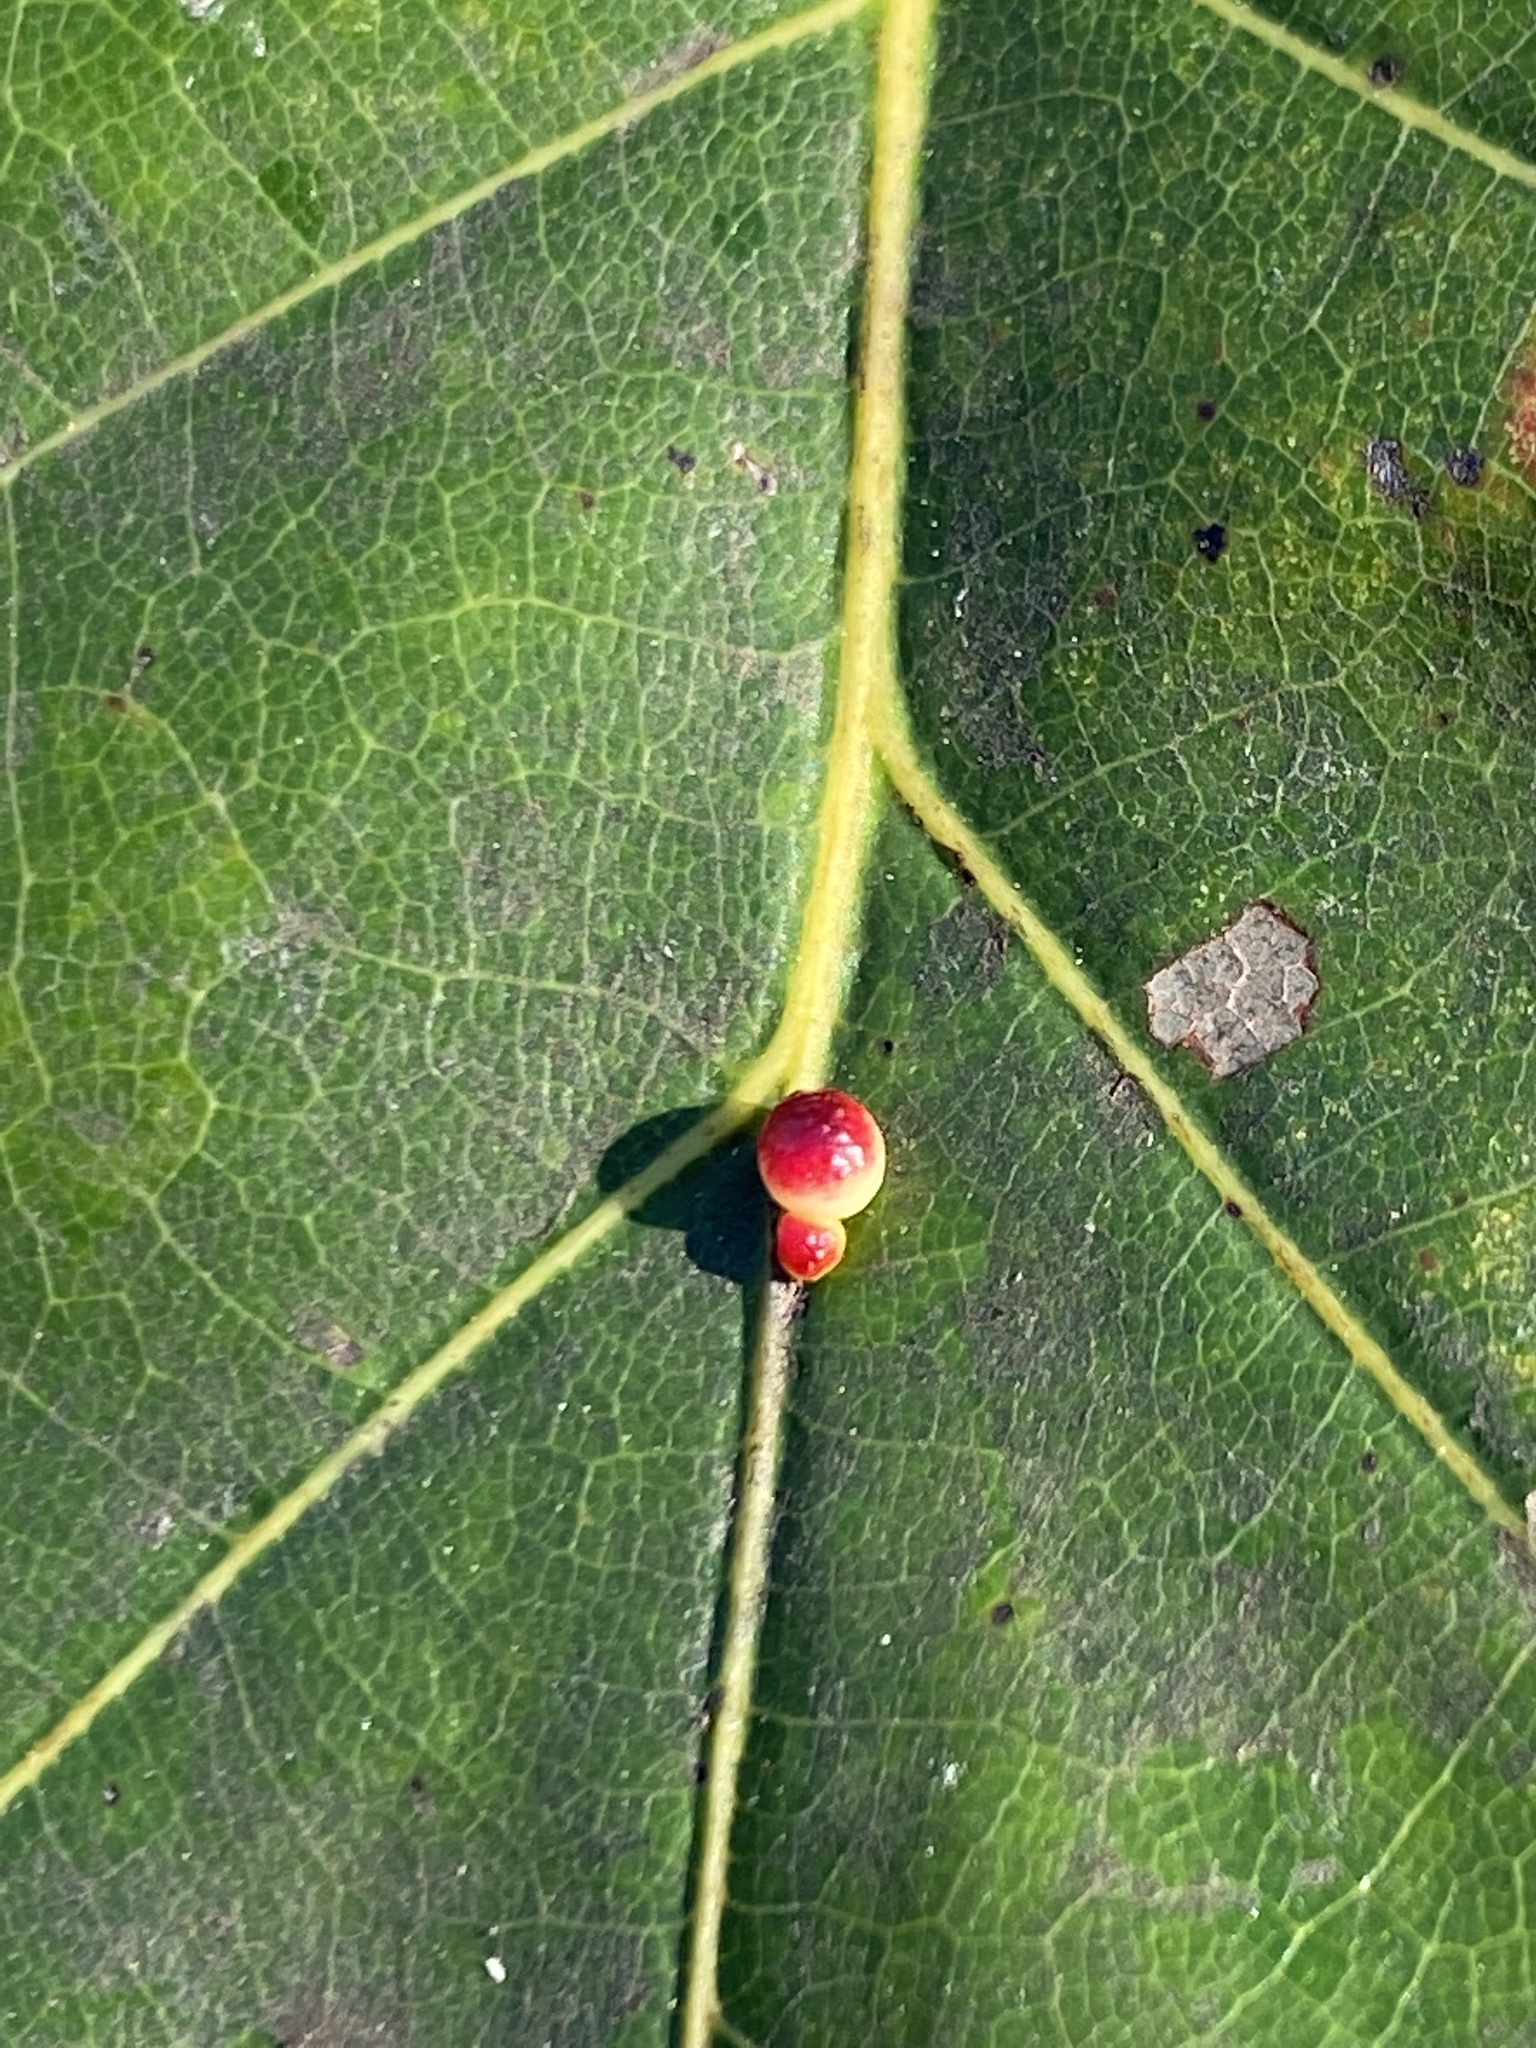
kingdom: Animalia
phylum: Arthropoda
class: Insecta
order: Hymenoptera
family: Cynipidae
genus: Zopheroteras
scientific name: Zopheroteras
